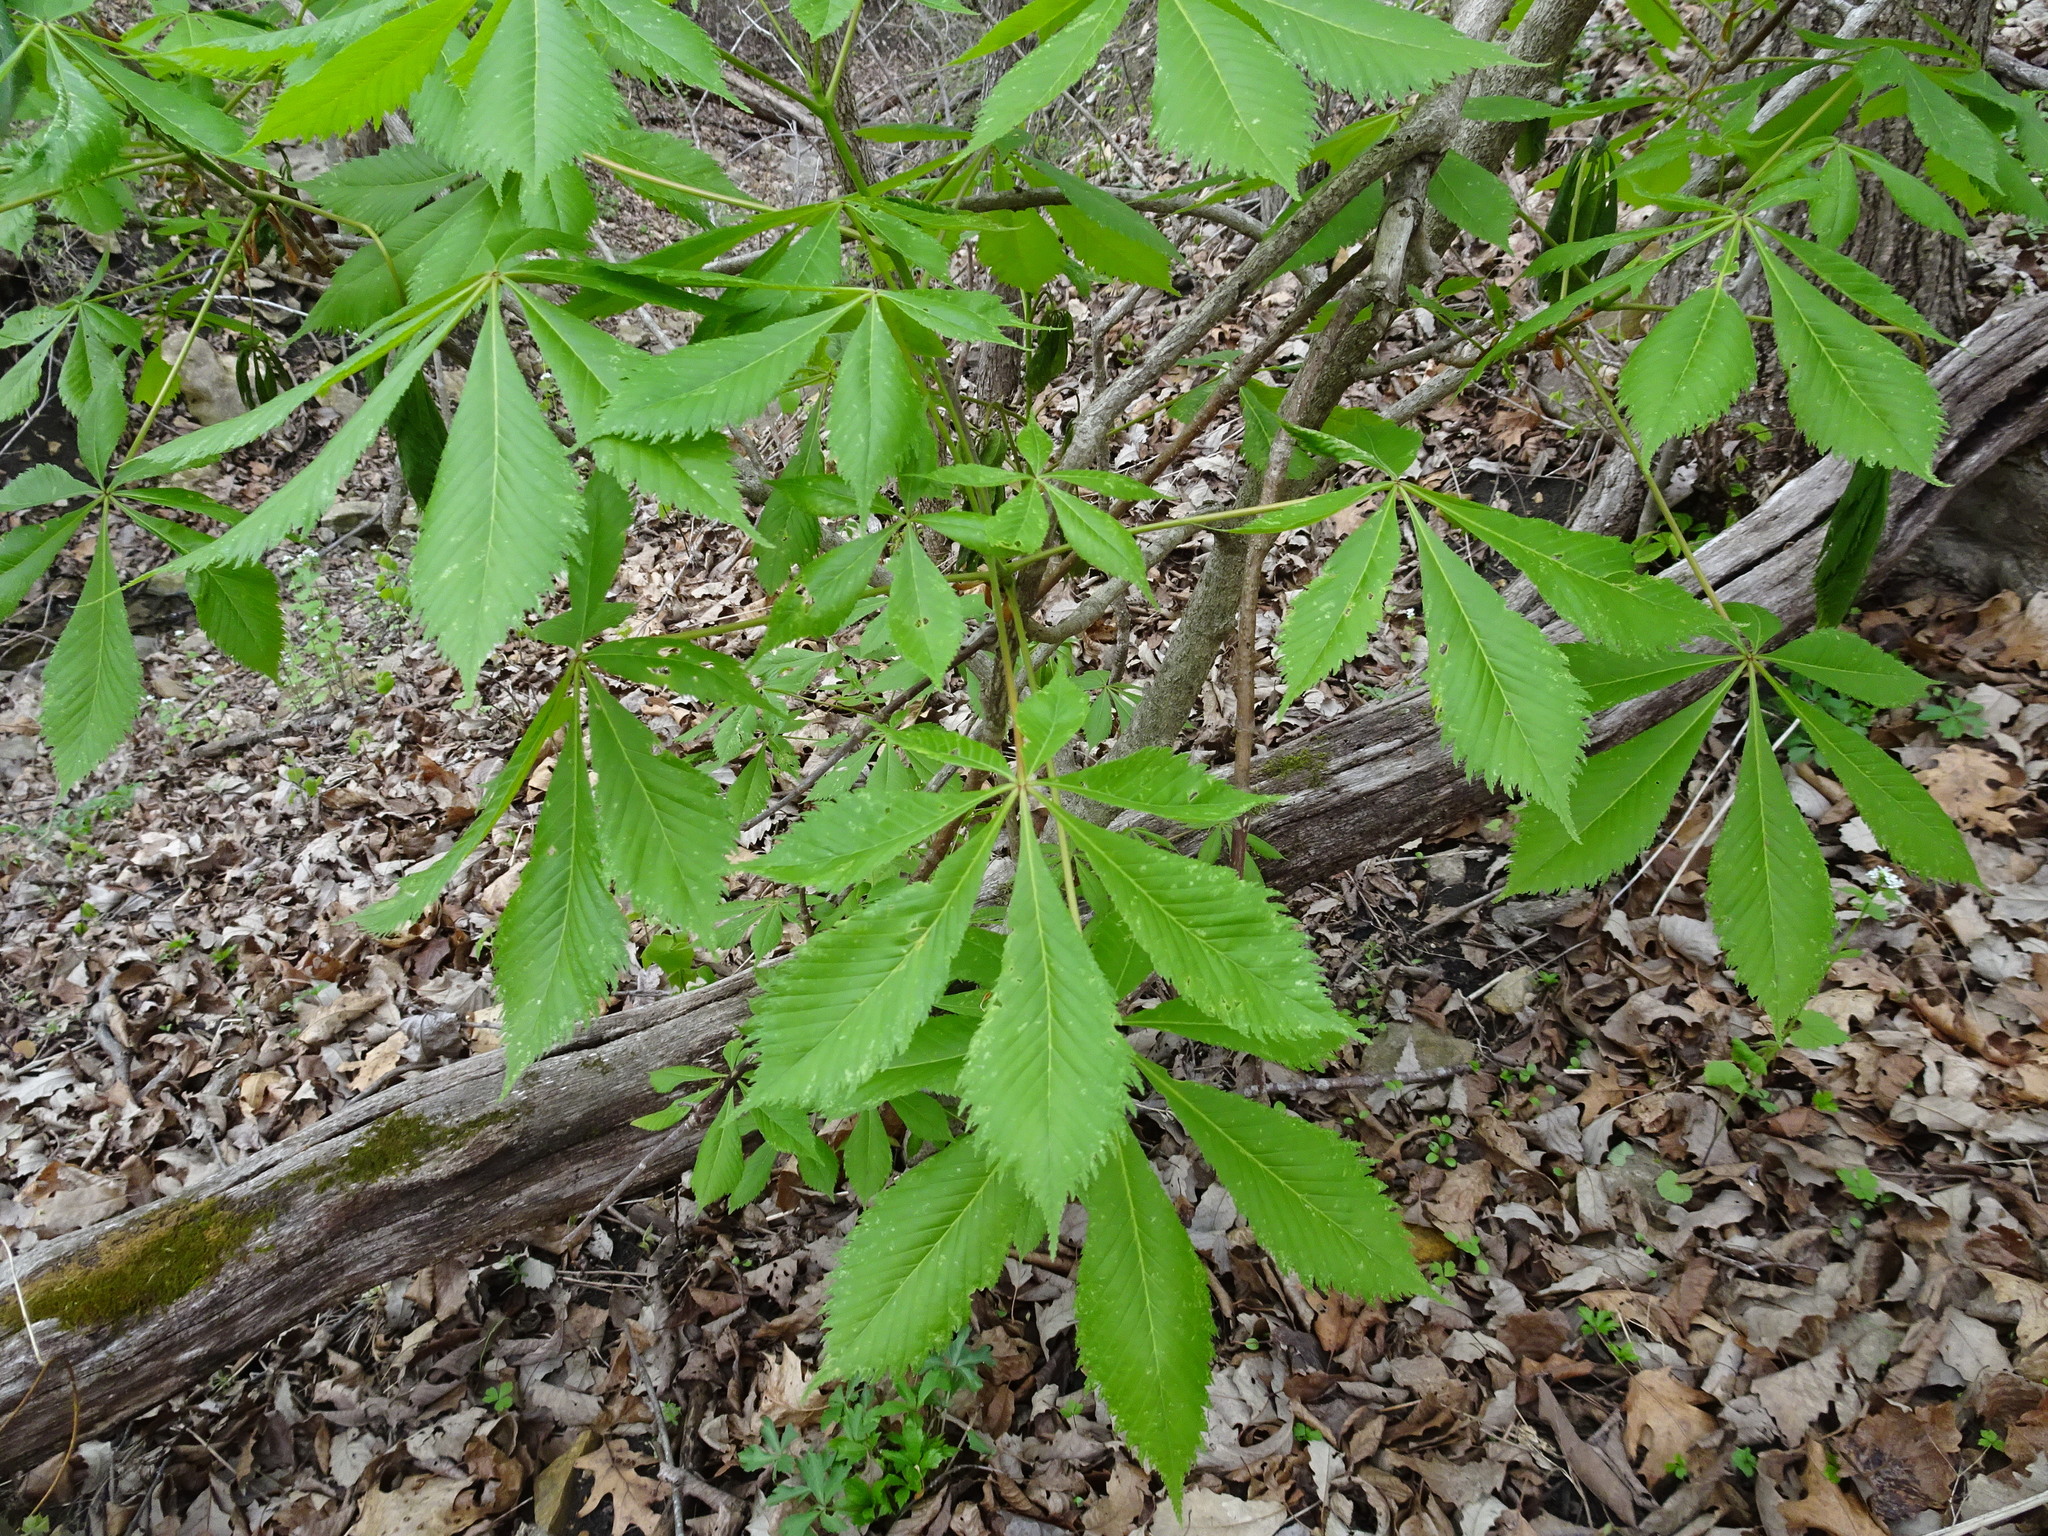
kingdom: Plantae
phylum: Tracheophyta
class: Magnoliopsida
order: Sapindales
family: Sapindaceae
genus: Aesculus
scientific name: Aesculus glabra
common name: Ohio buckeye
